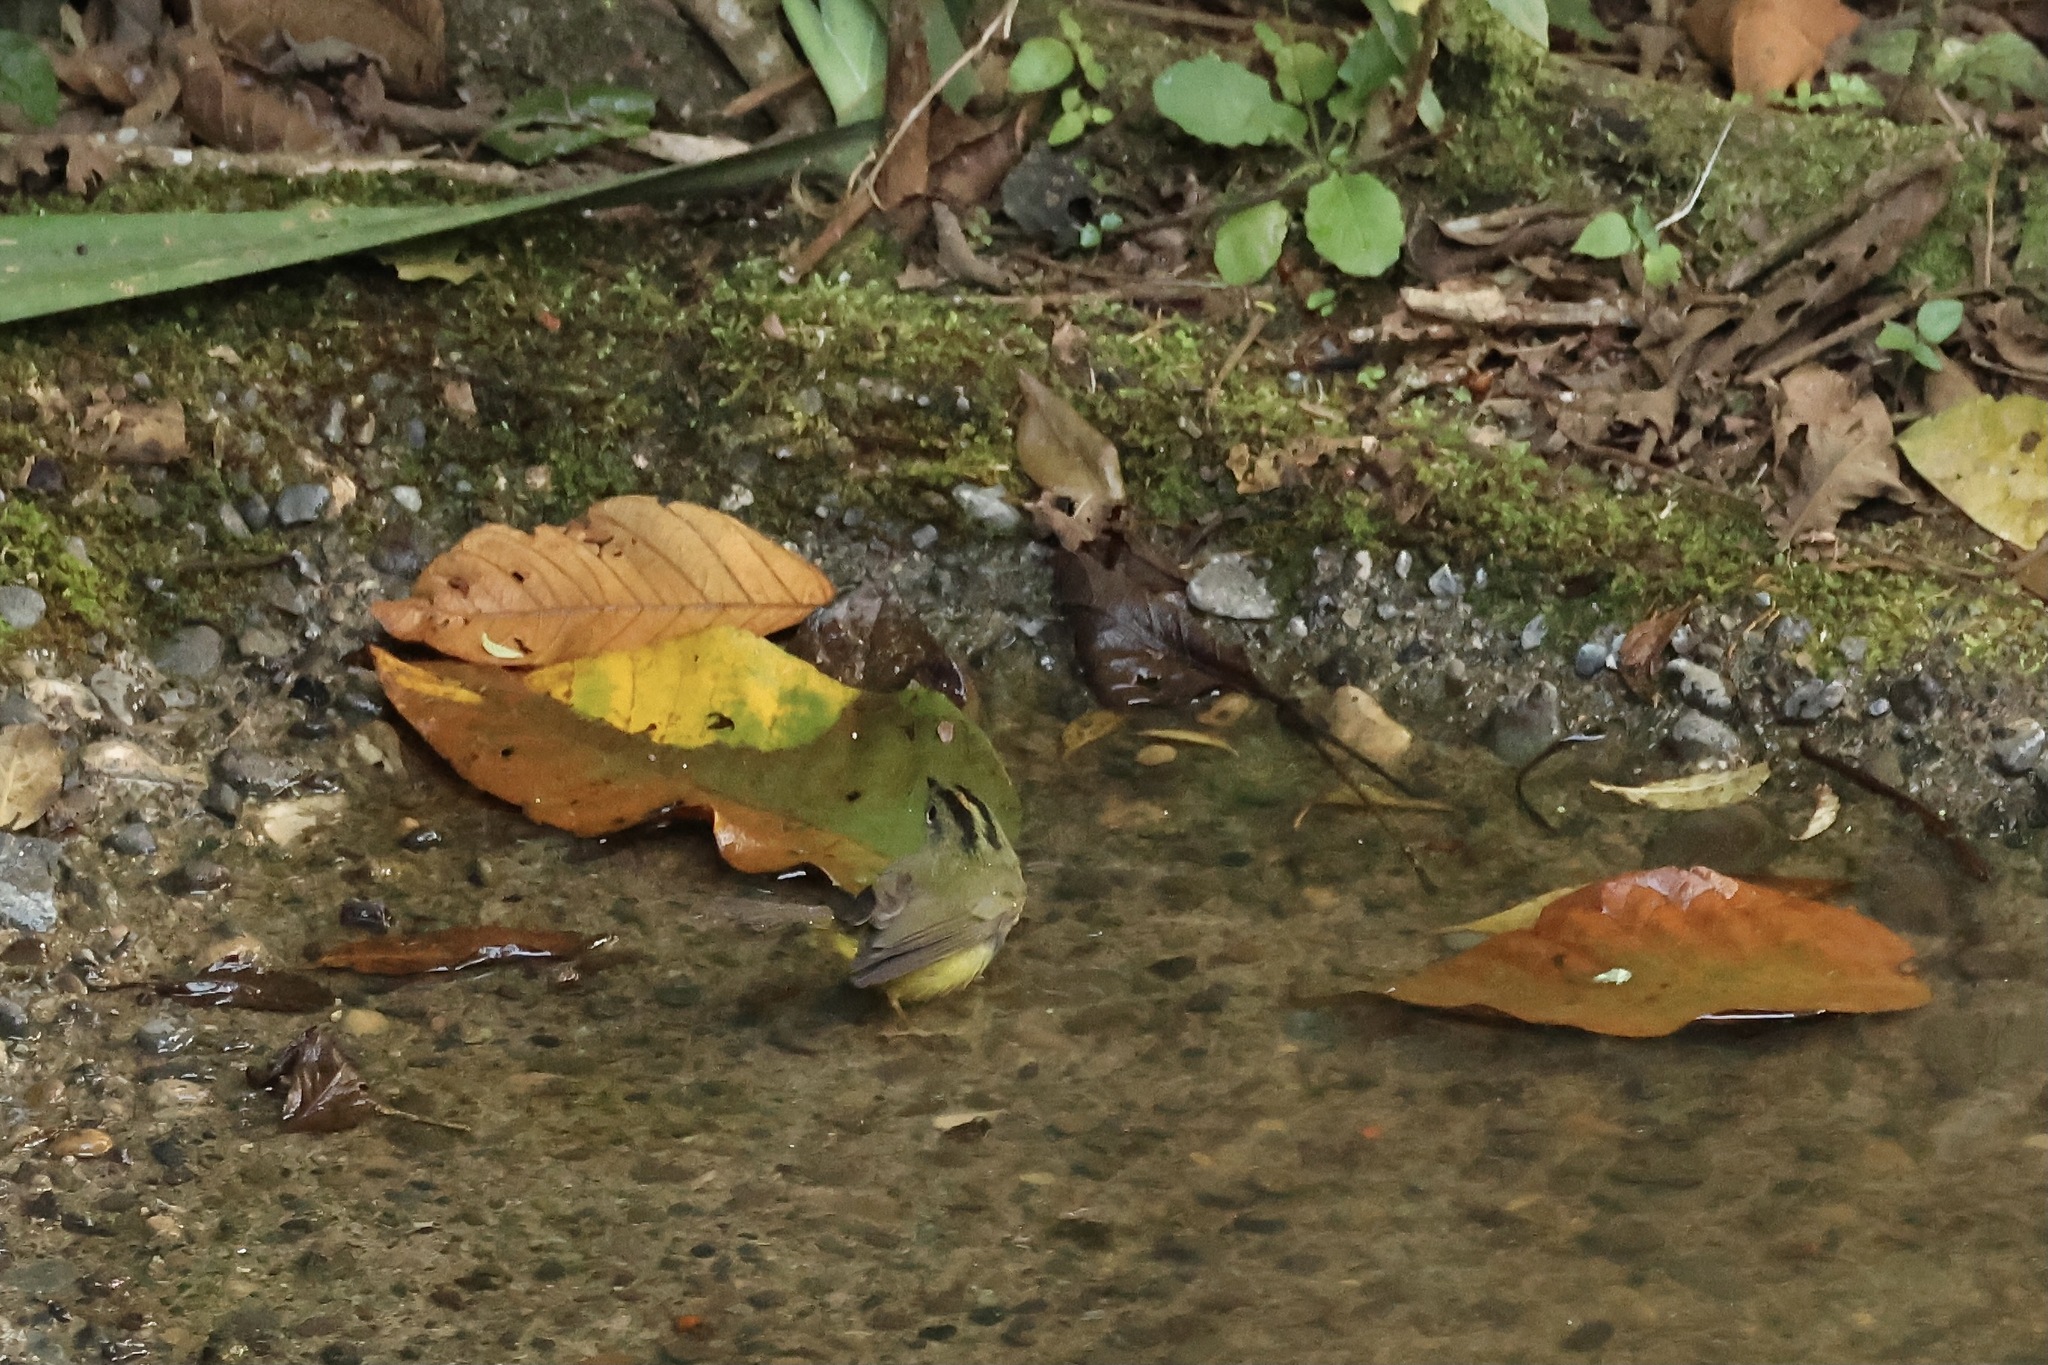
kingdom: Animalia
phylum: Chordata
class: Aves
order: Passeriformes
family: Parulidae
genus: Basileuterus
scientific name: Basileuterus culicivorus
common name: Golden-crowned warbler
